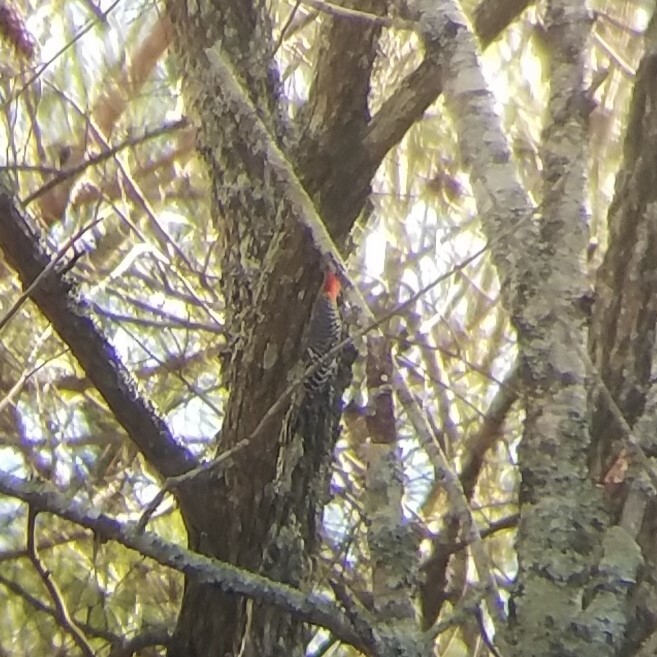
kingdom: Animalia
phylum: Chordata
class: Aves
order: Piciformes
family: Picidae
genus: Melanerpes
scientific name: Melanerpes carolinus
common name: Red-bellied woodpecker
